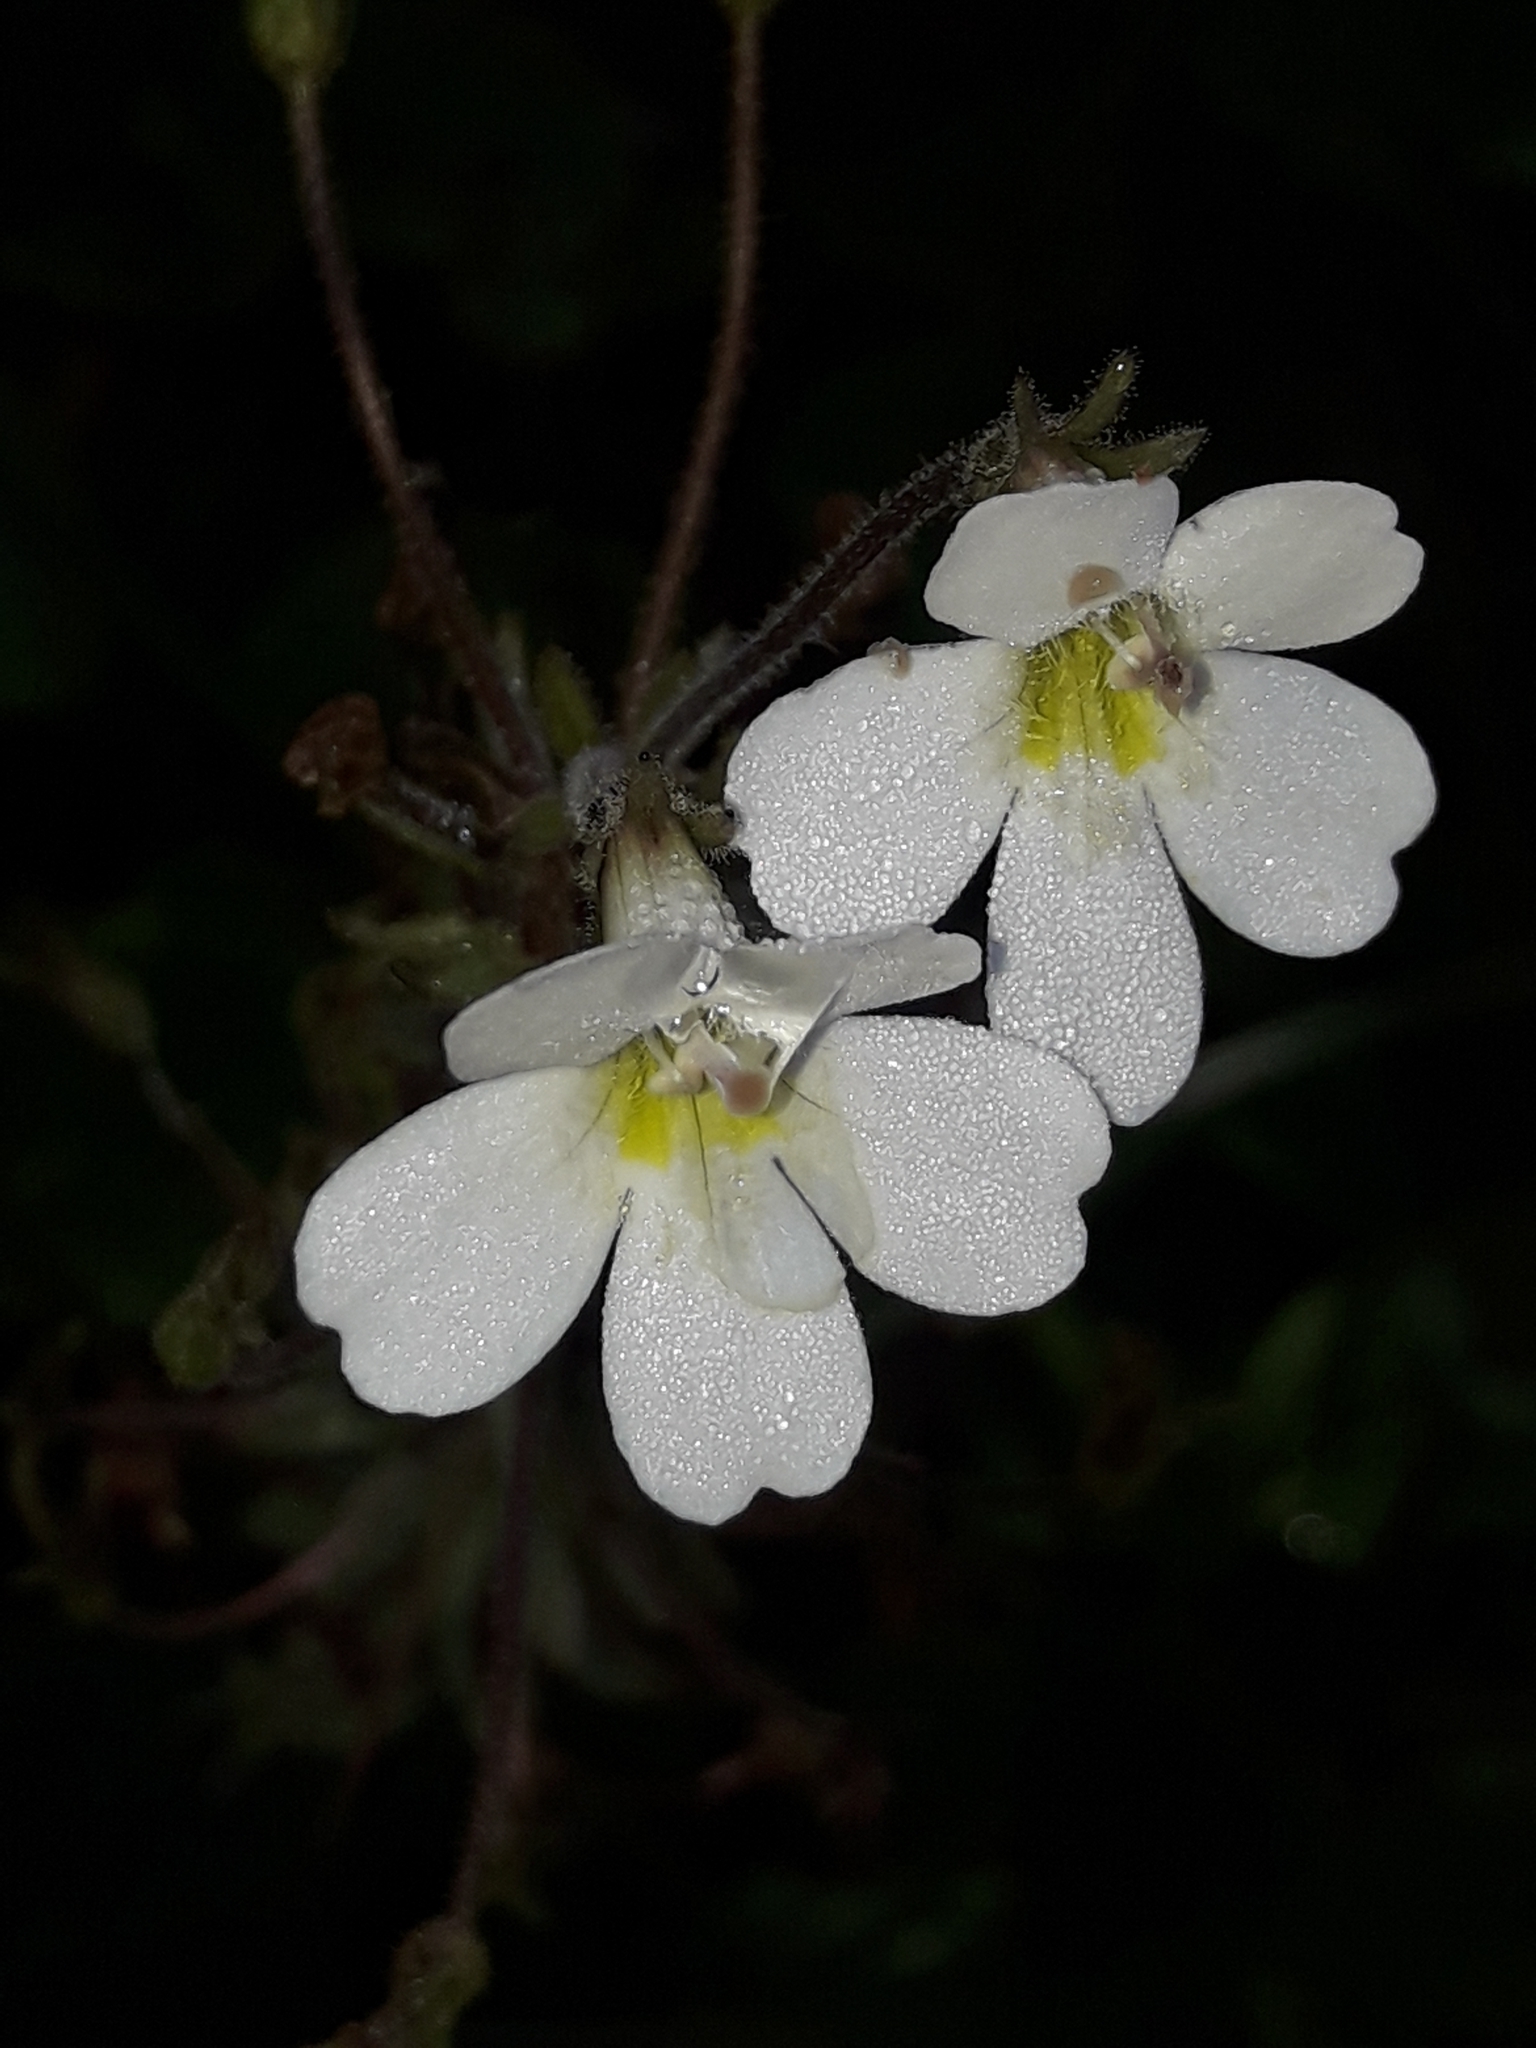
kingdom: Plantae
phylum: Tracheophyta
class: Magnoliopsida
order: Lamiales
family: Plantaginaceae
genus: Ourisia
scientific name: Ourisia macrophylla
